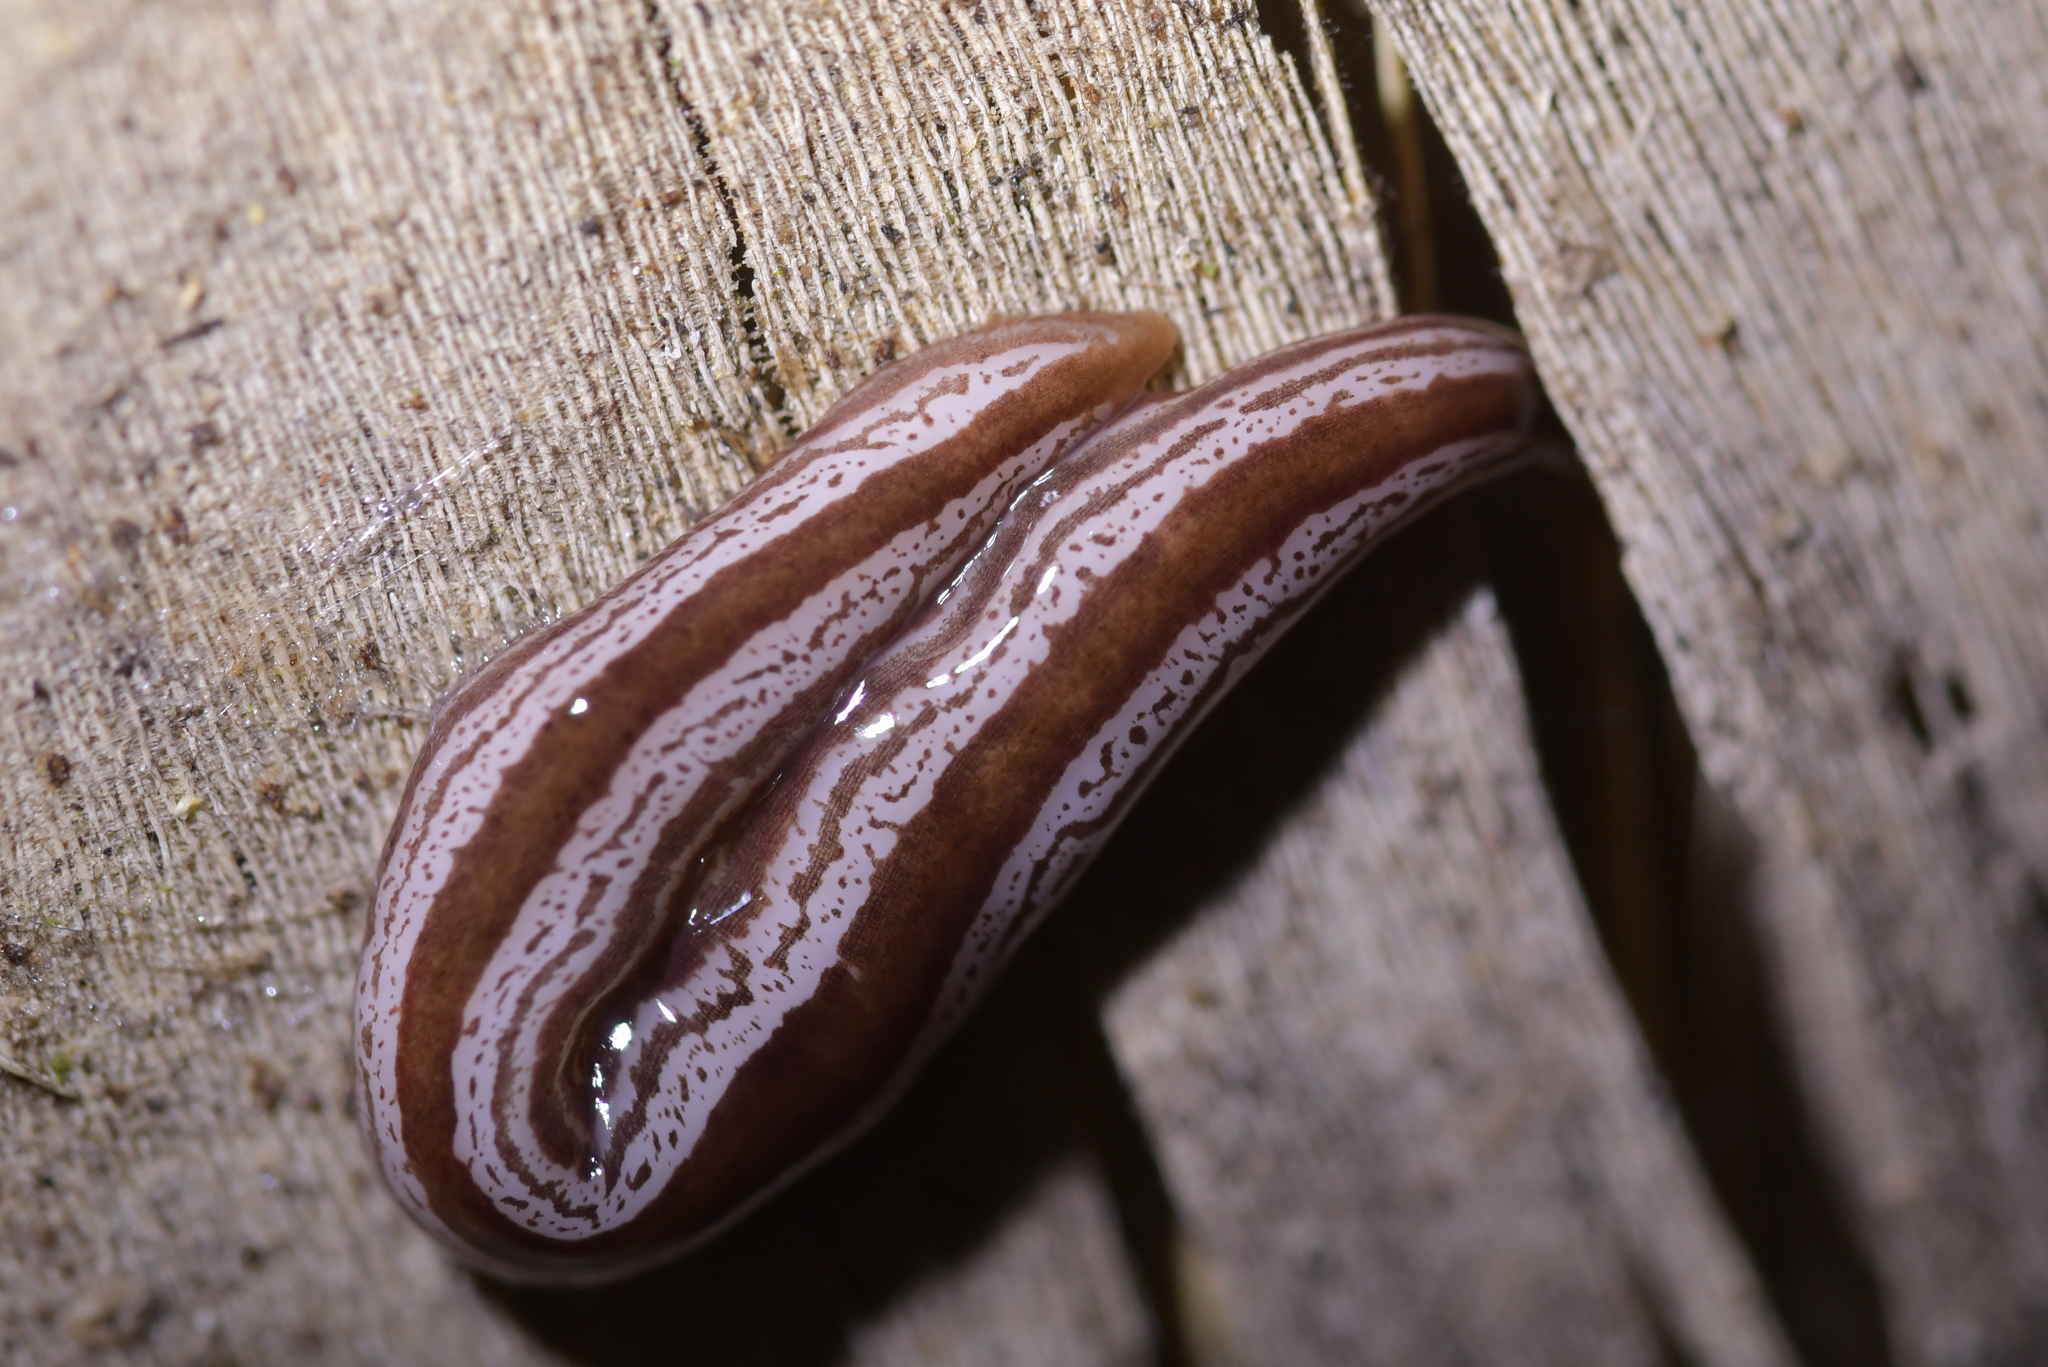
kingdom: Animalia
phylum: Platyhelminthes
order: Tricladida
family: Geoplanidae
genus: Artioposthia
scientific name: Artioposthia exulans
